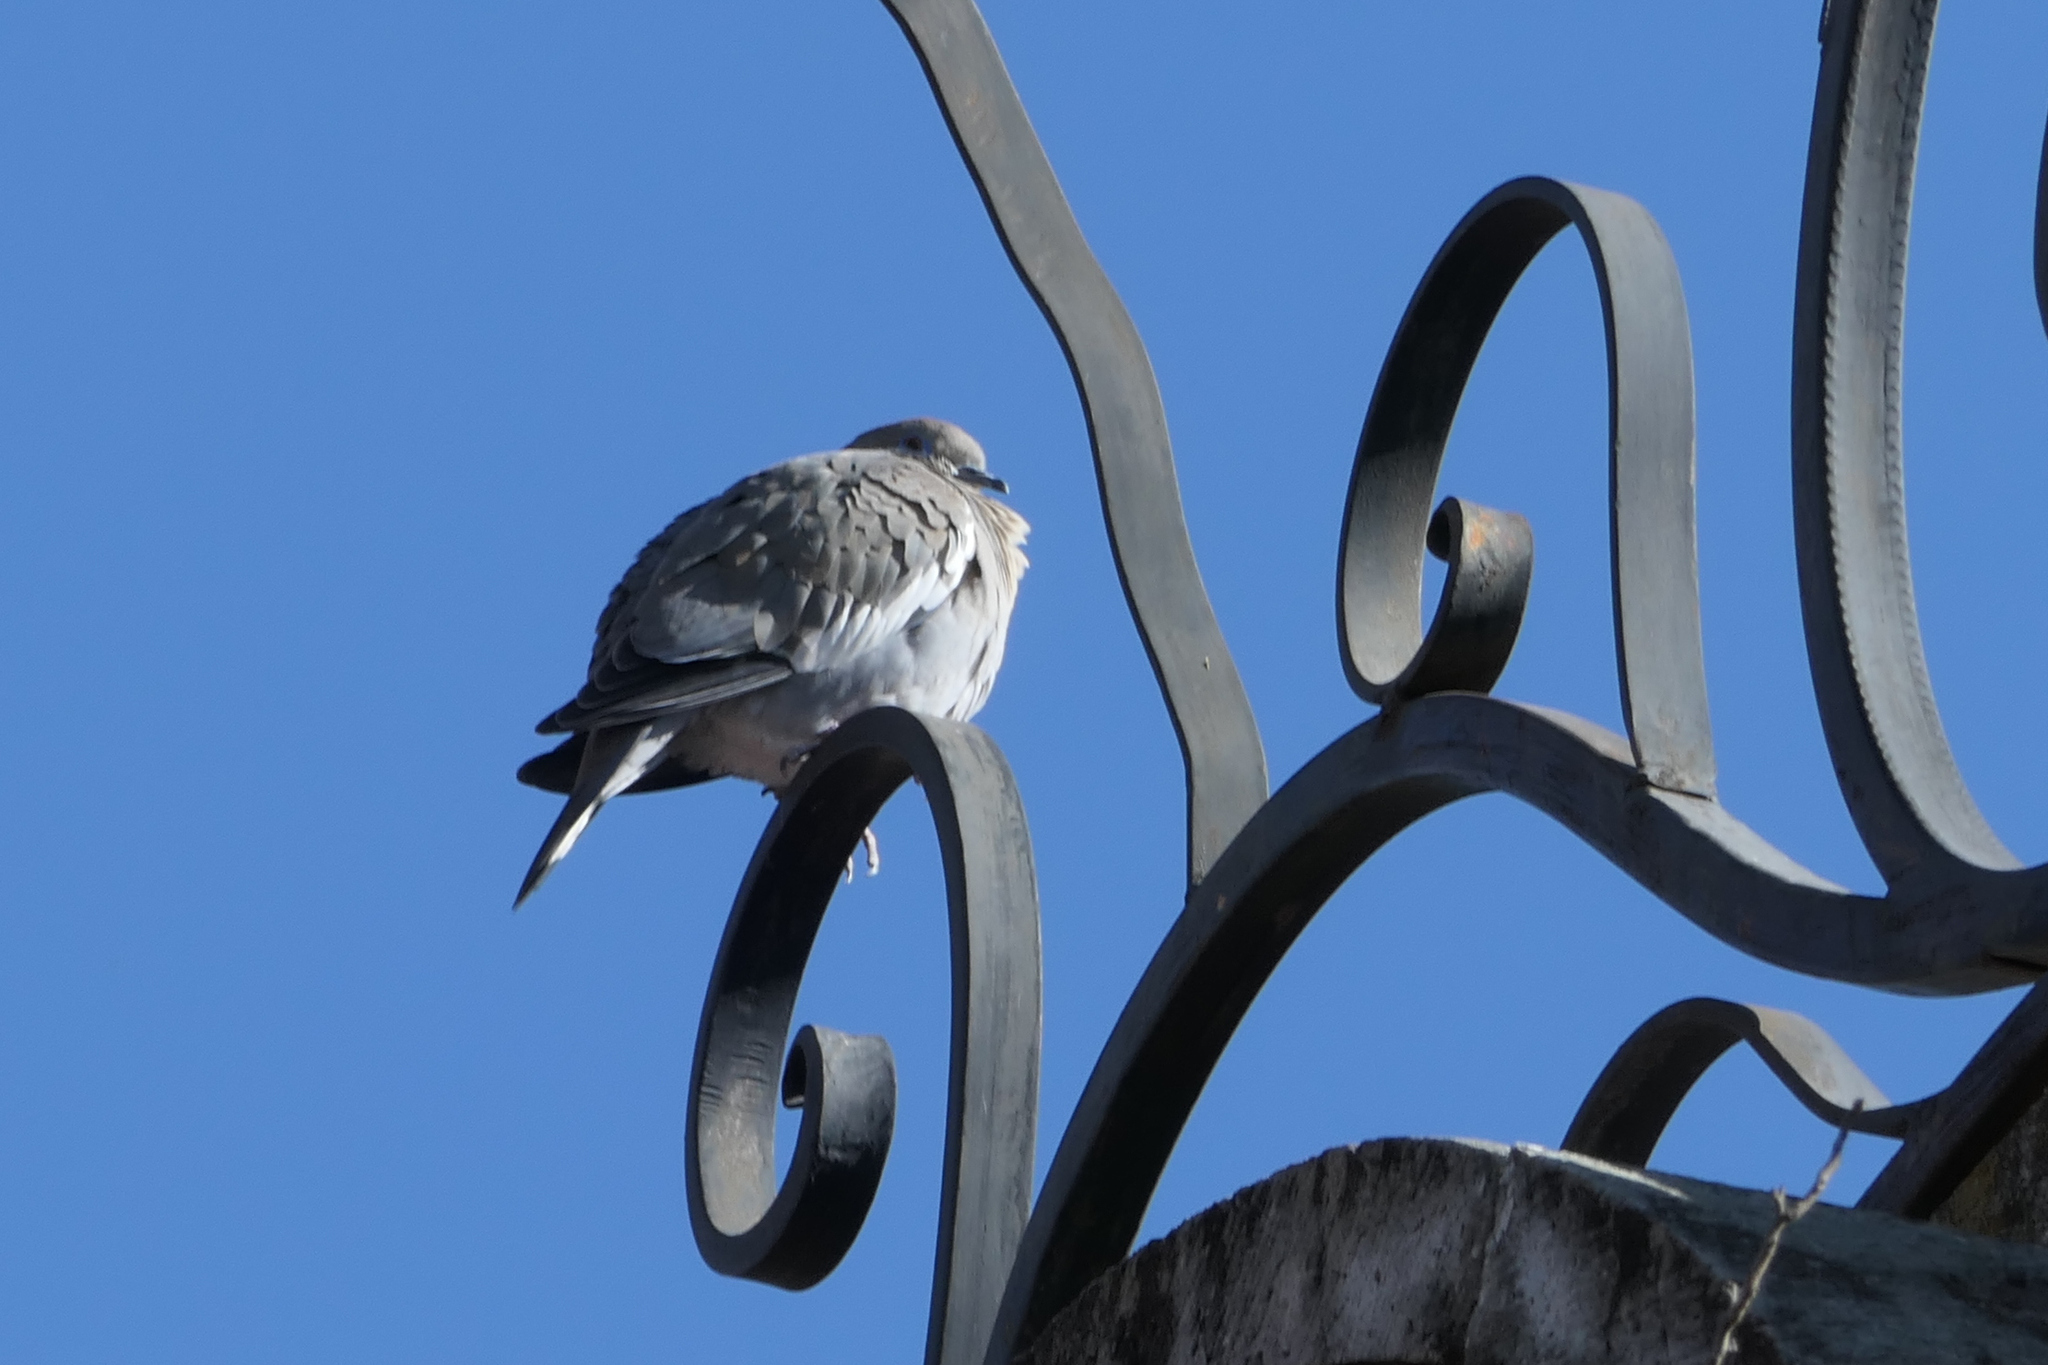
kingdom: Animalia
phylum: Chordata
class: Aves
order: Columbiformes
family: Columbidae
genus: Zenaida
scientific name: Zenaida asiatica
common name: White-winged dove
